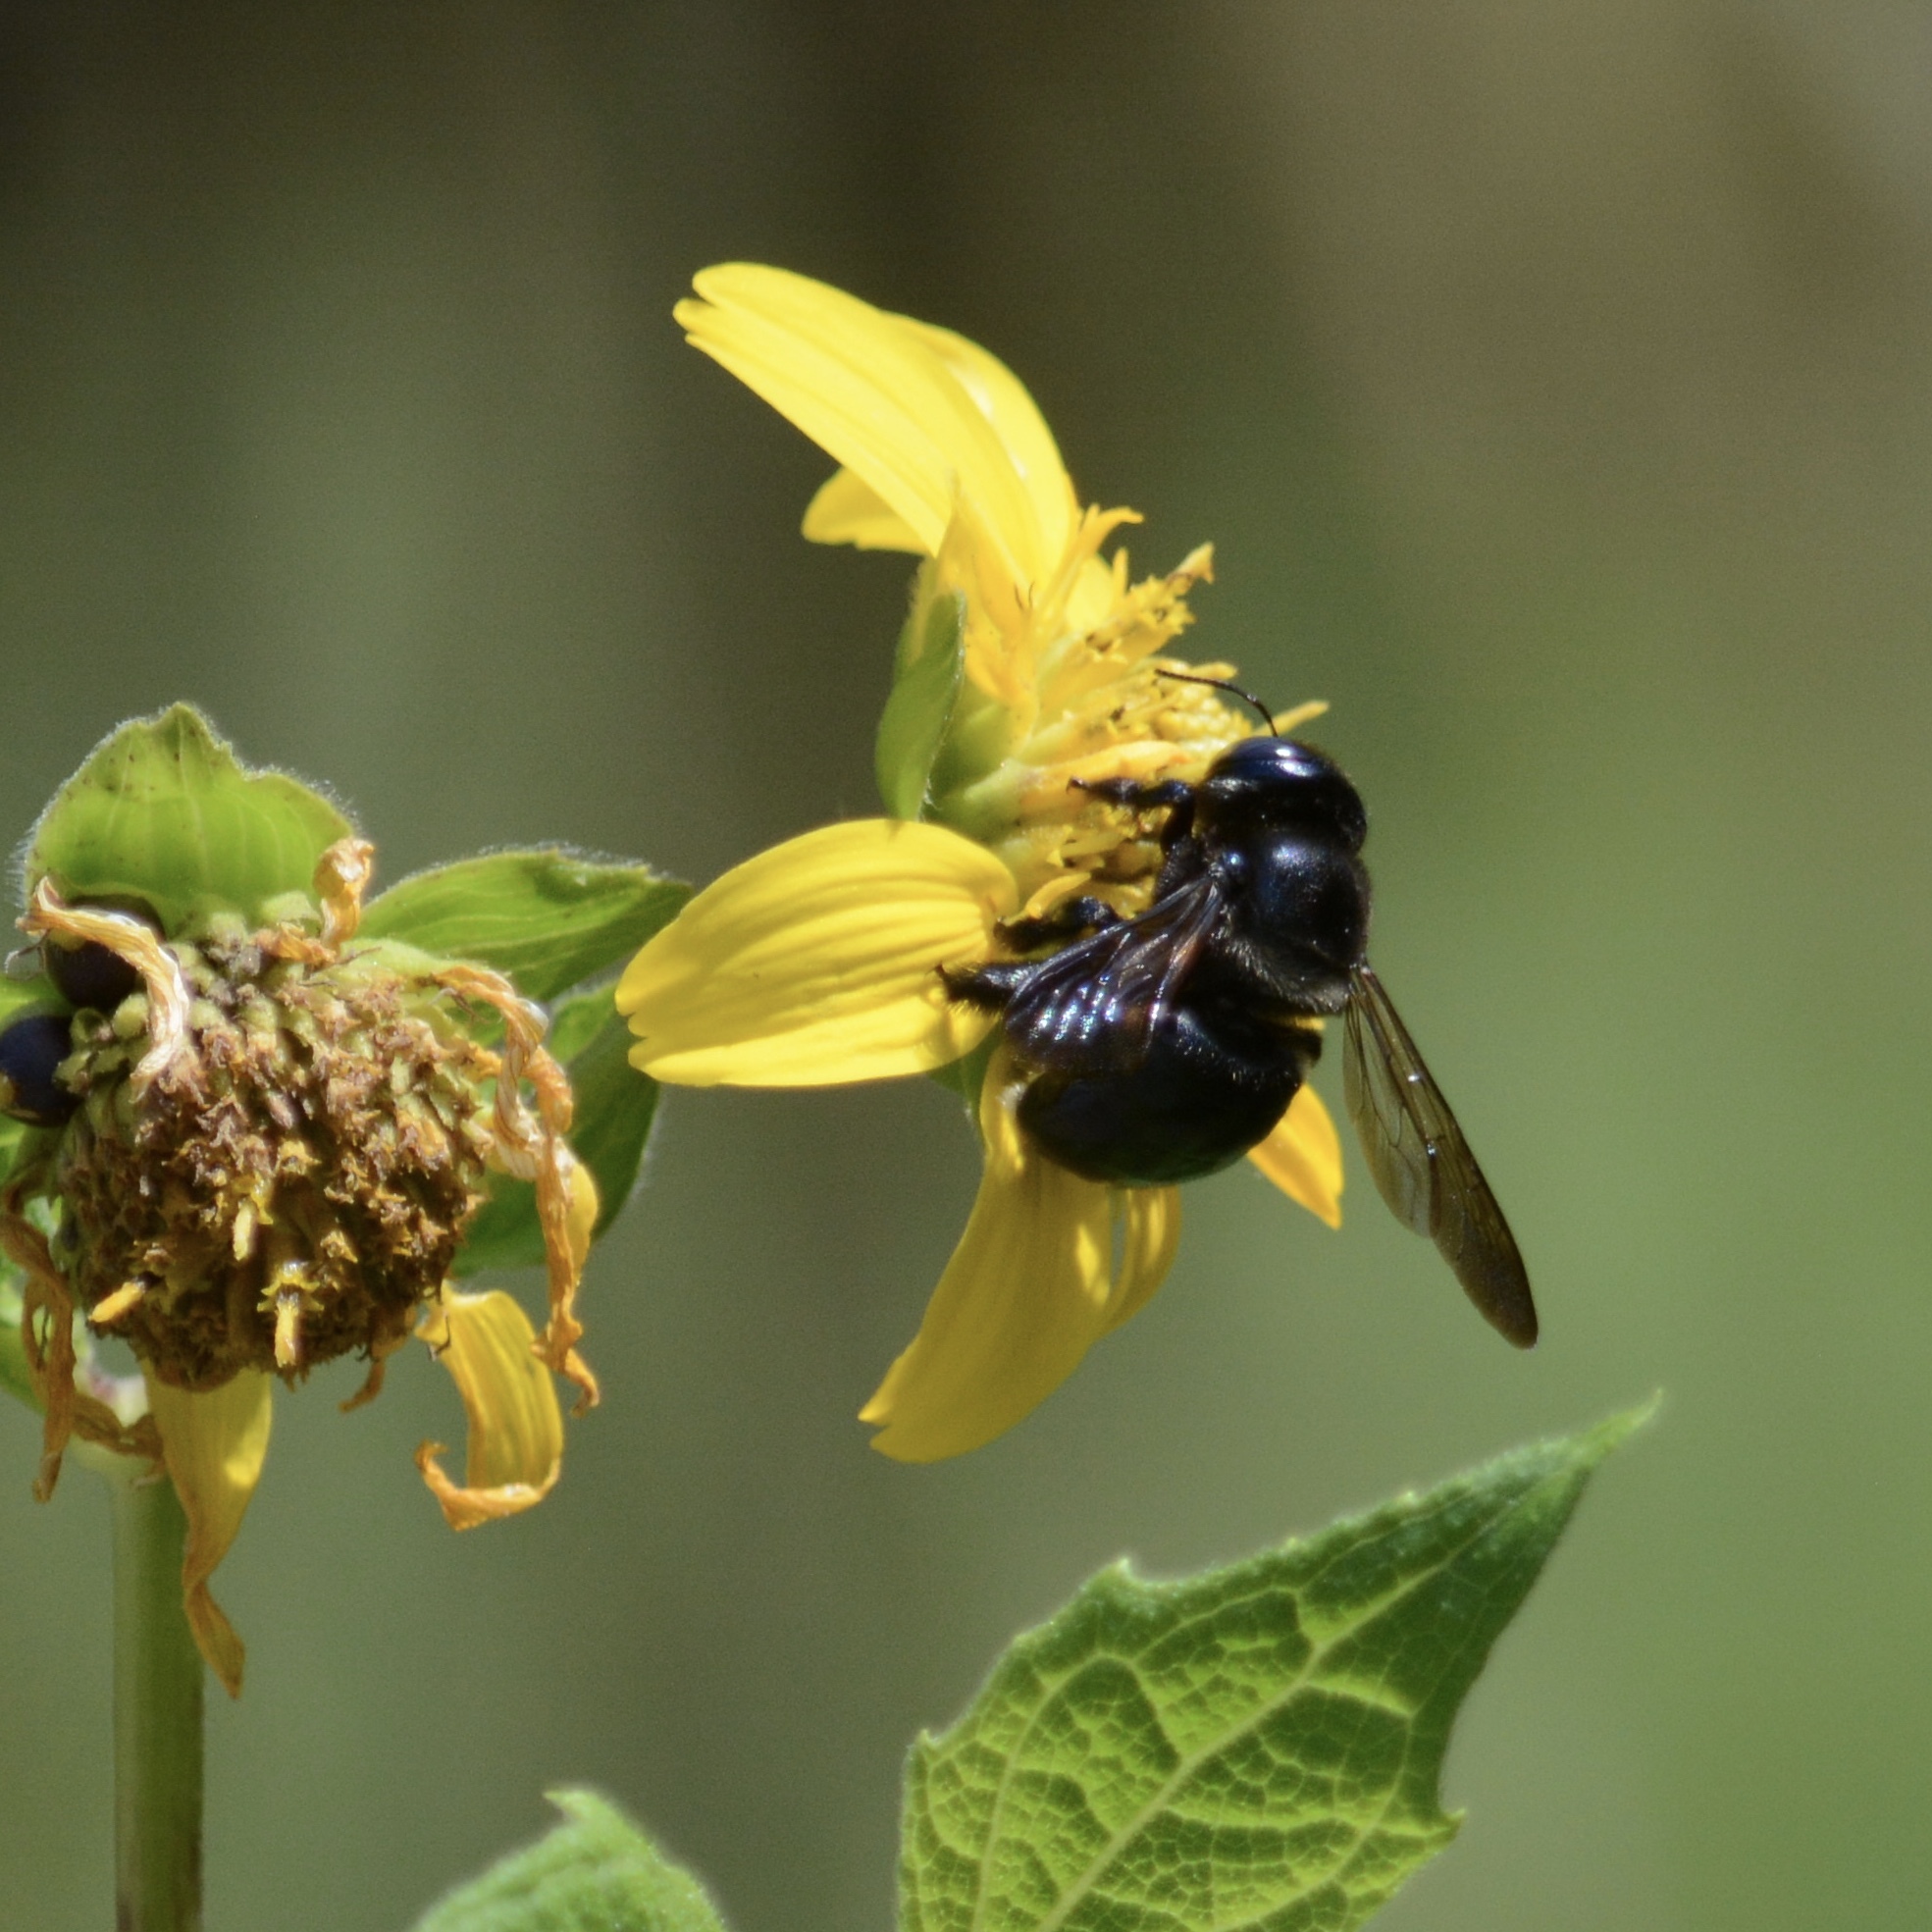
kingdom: Animalia
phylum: Arthropoda
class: Insecta
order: Hymenoptera
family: Apidae
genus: Xylocopa
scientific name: Xylocopa micans
